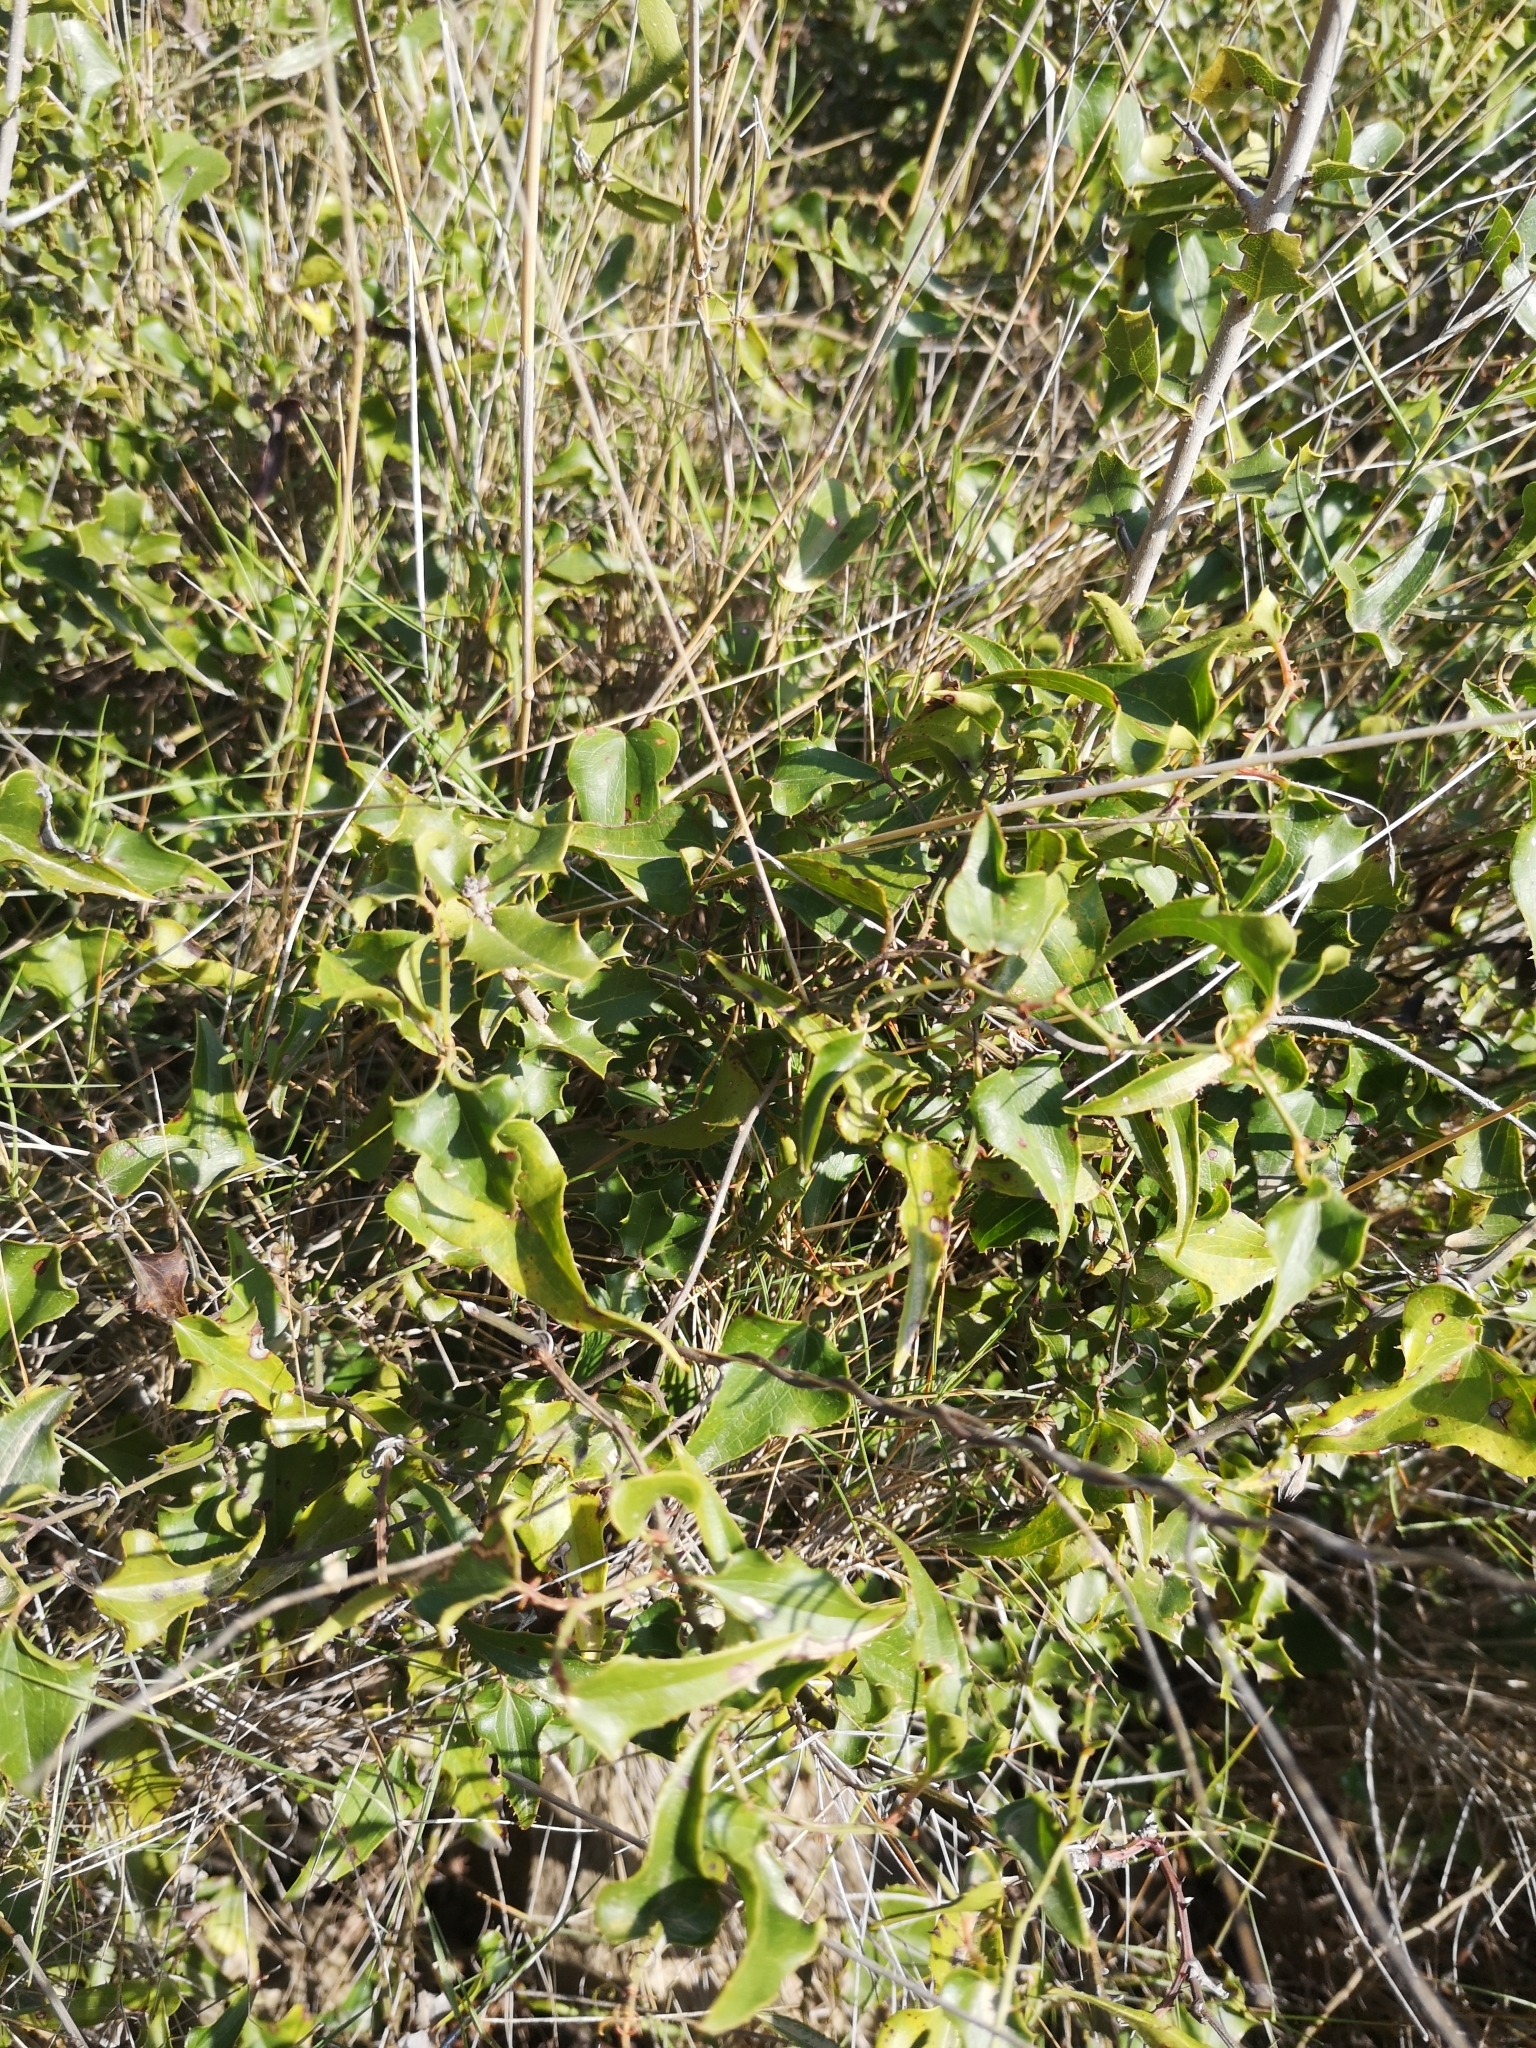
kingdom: Plantae
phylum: Tracheophyta
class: Liliopsida
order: Liliales
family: Smilacaceae
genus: Smilax
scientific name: Smilax aspera
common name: Common smilax
